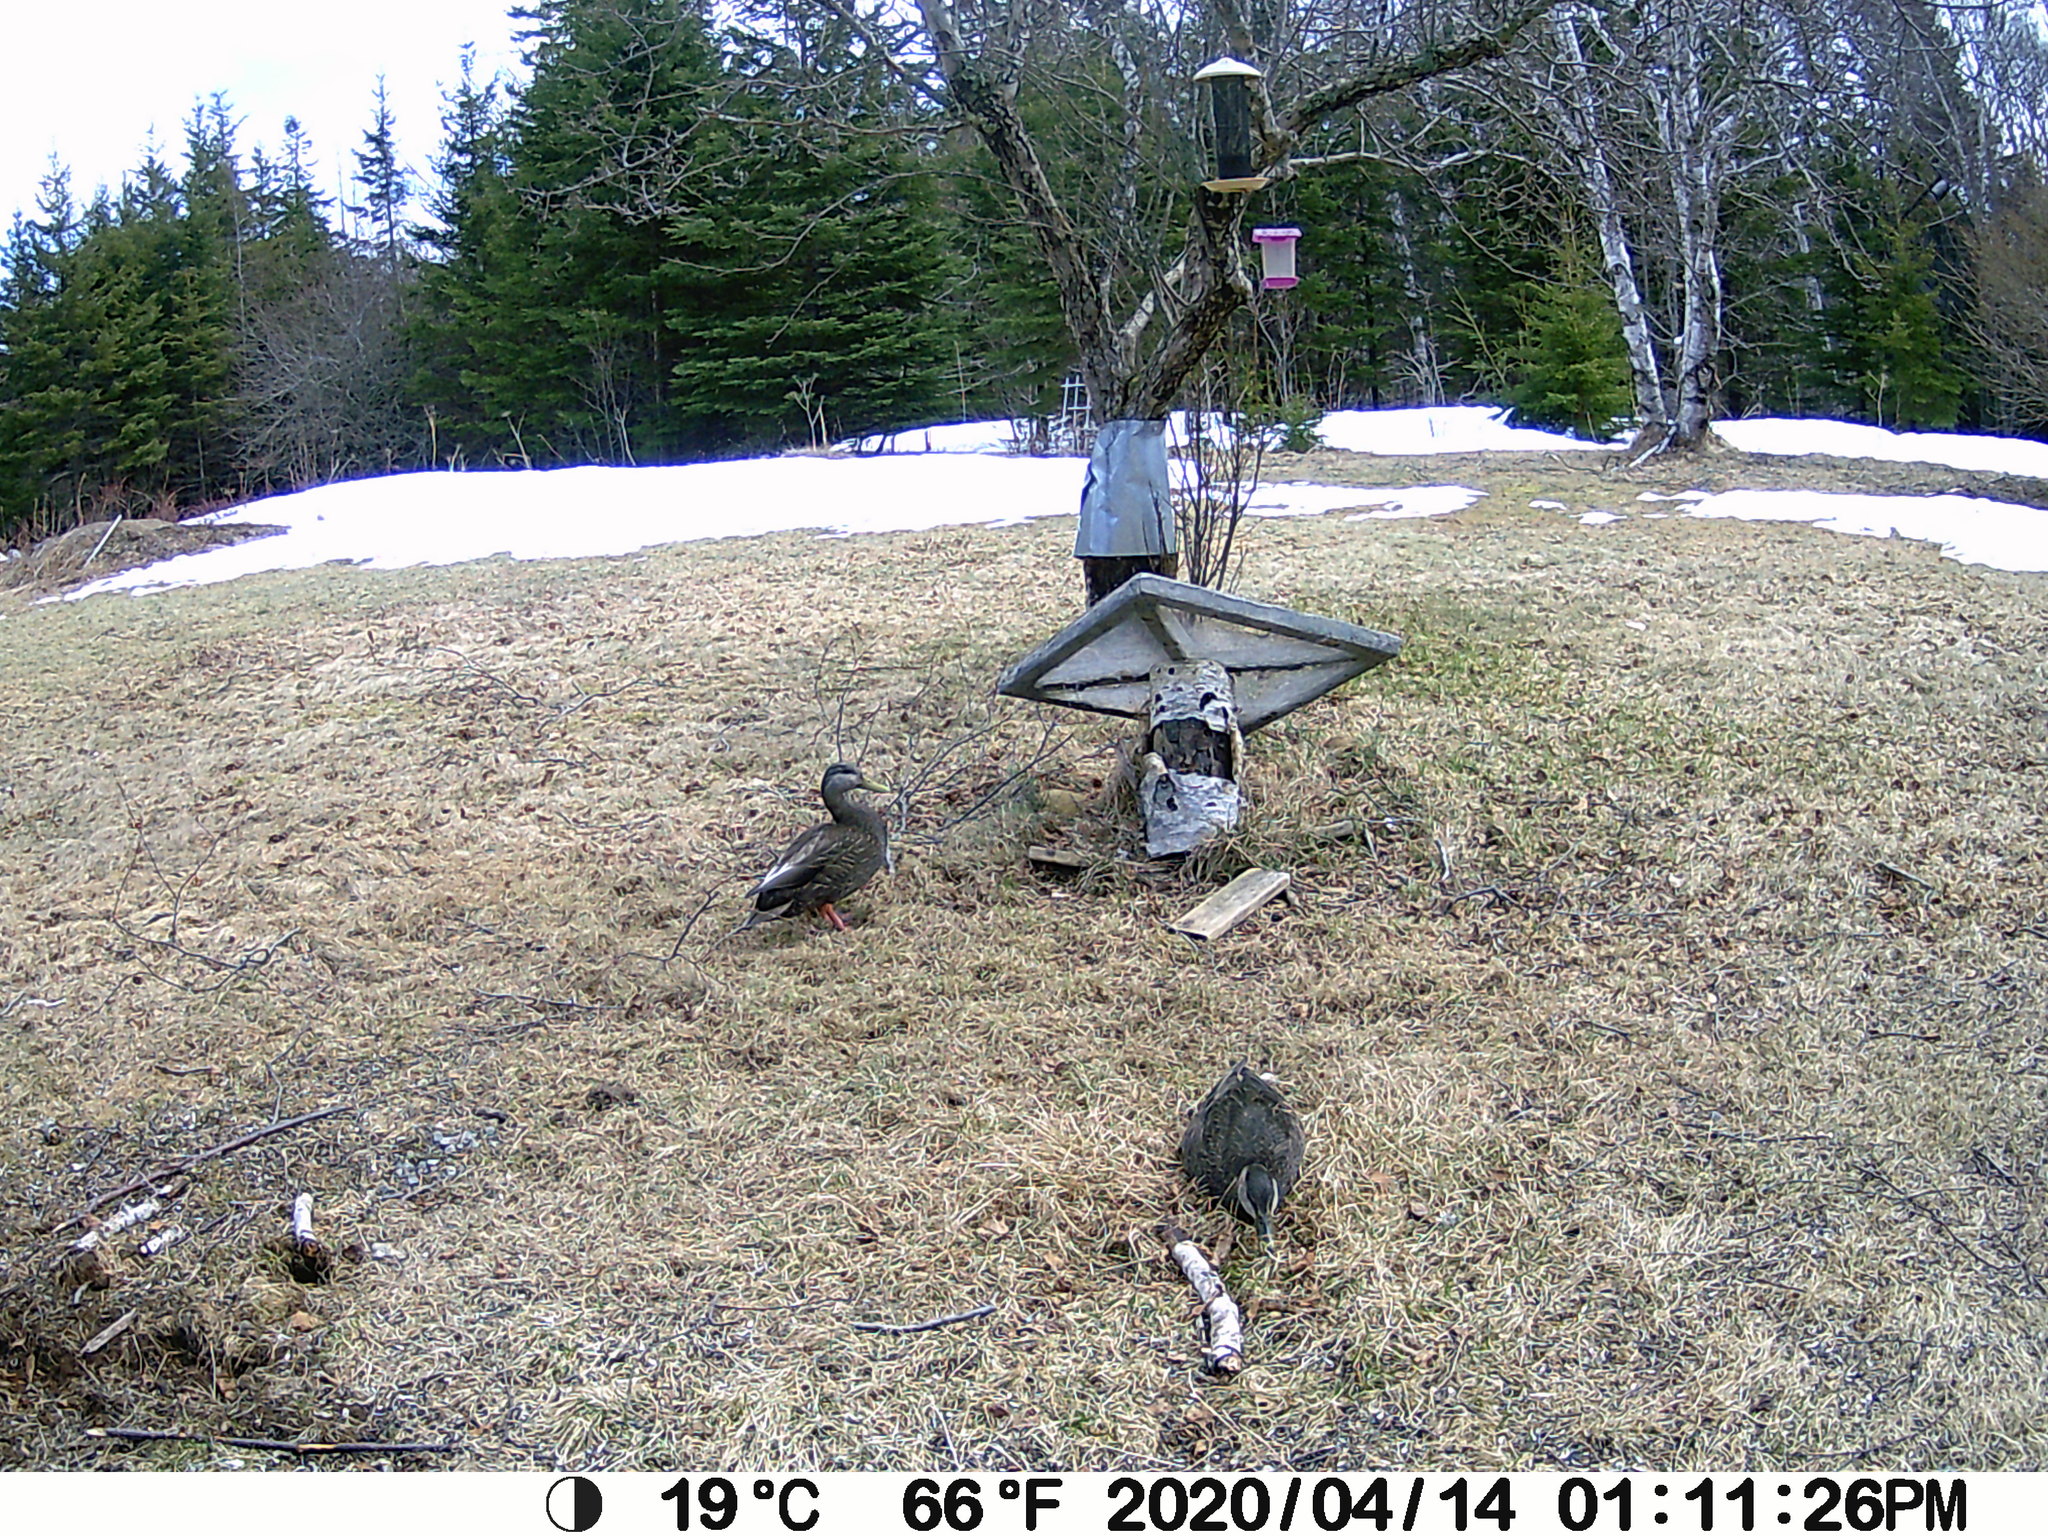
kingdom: Animalia
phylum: Chordata
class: Aves
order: Anseriformes
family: Anatidae
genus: Anas
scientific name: Anas rubripes
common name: American black duck
